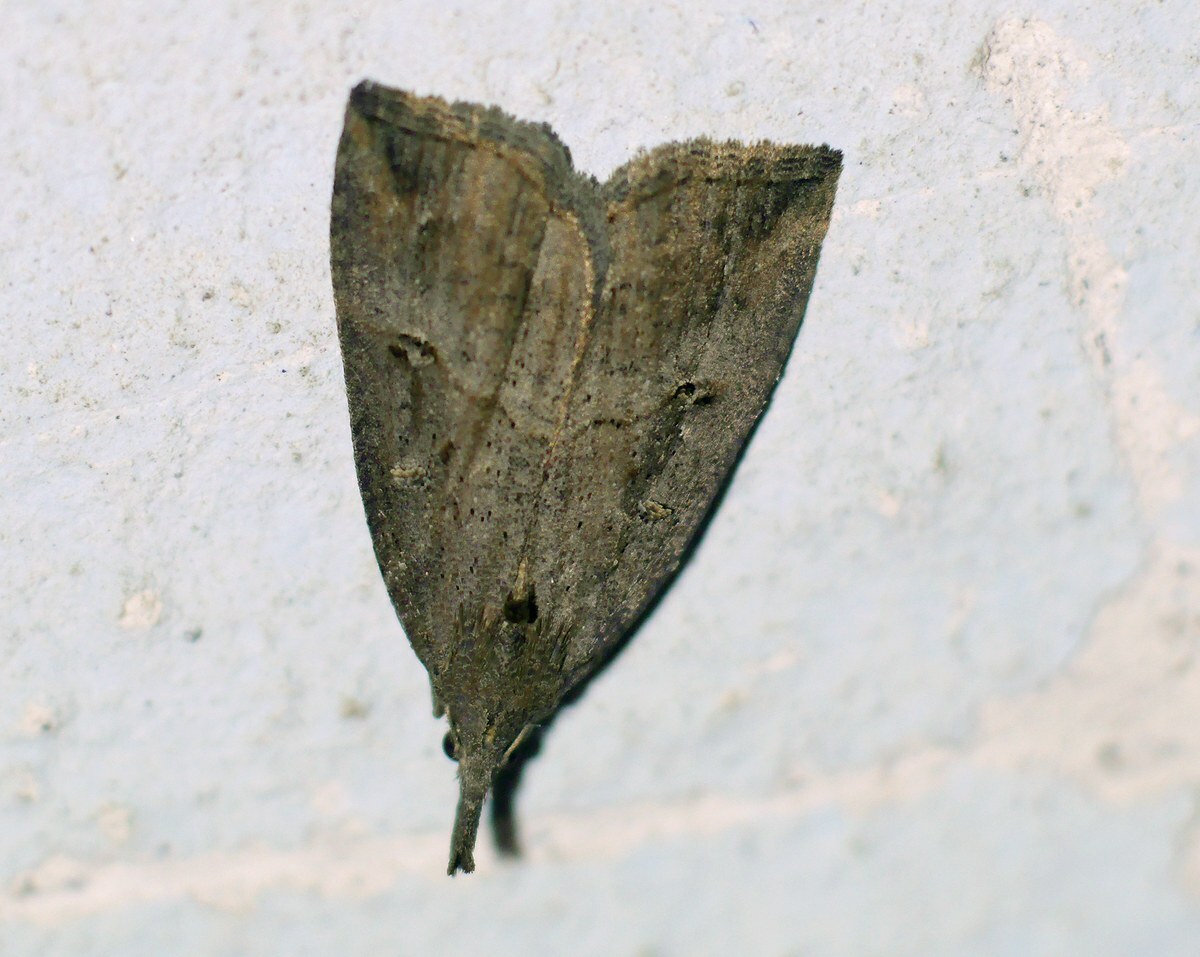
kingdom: Animalia
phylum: Arthropoda
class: Insecta
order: Lepidoptera
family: Erebidae
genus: Hypena
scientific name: Hypena rostralis
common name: Buttoned snout
